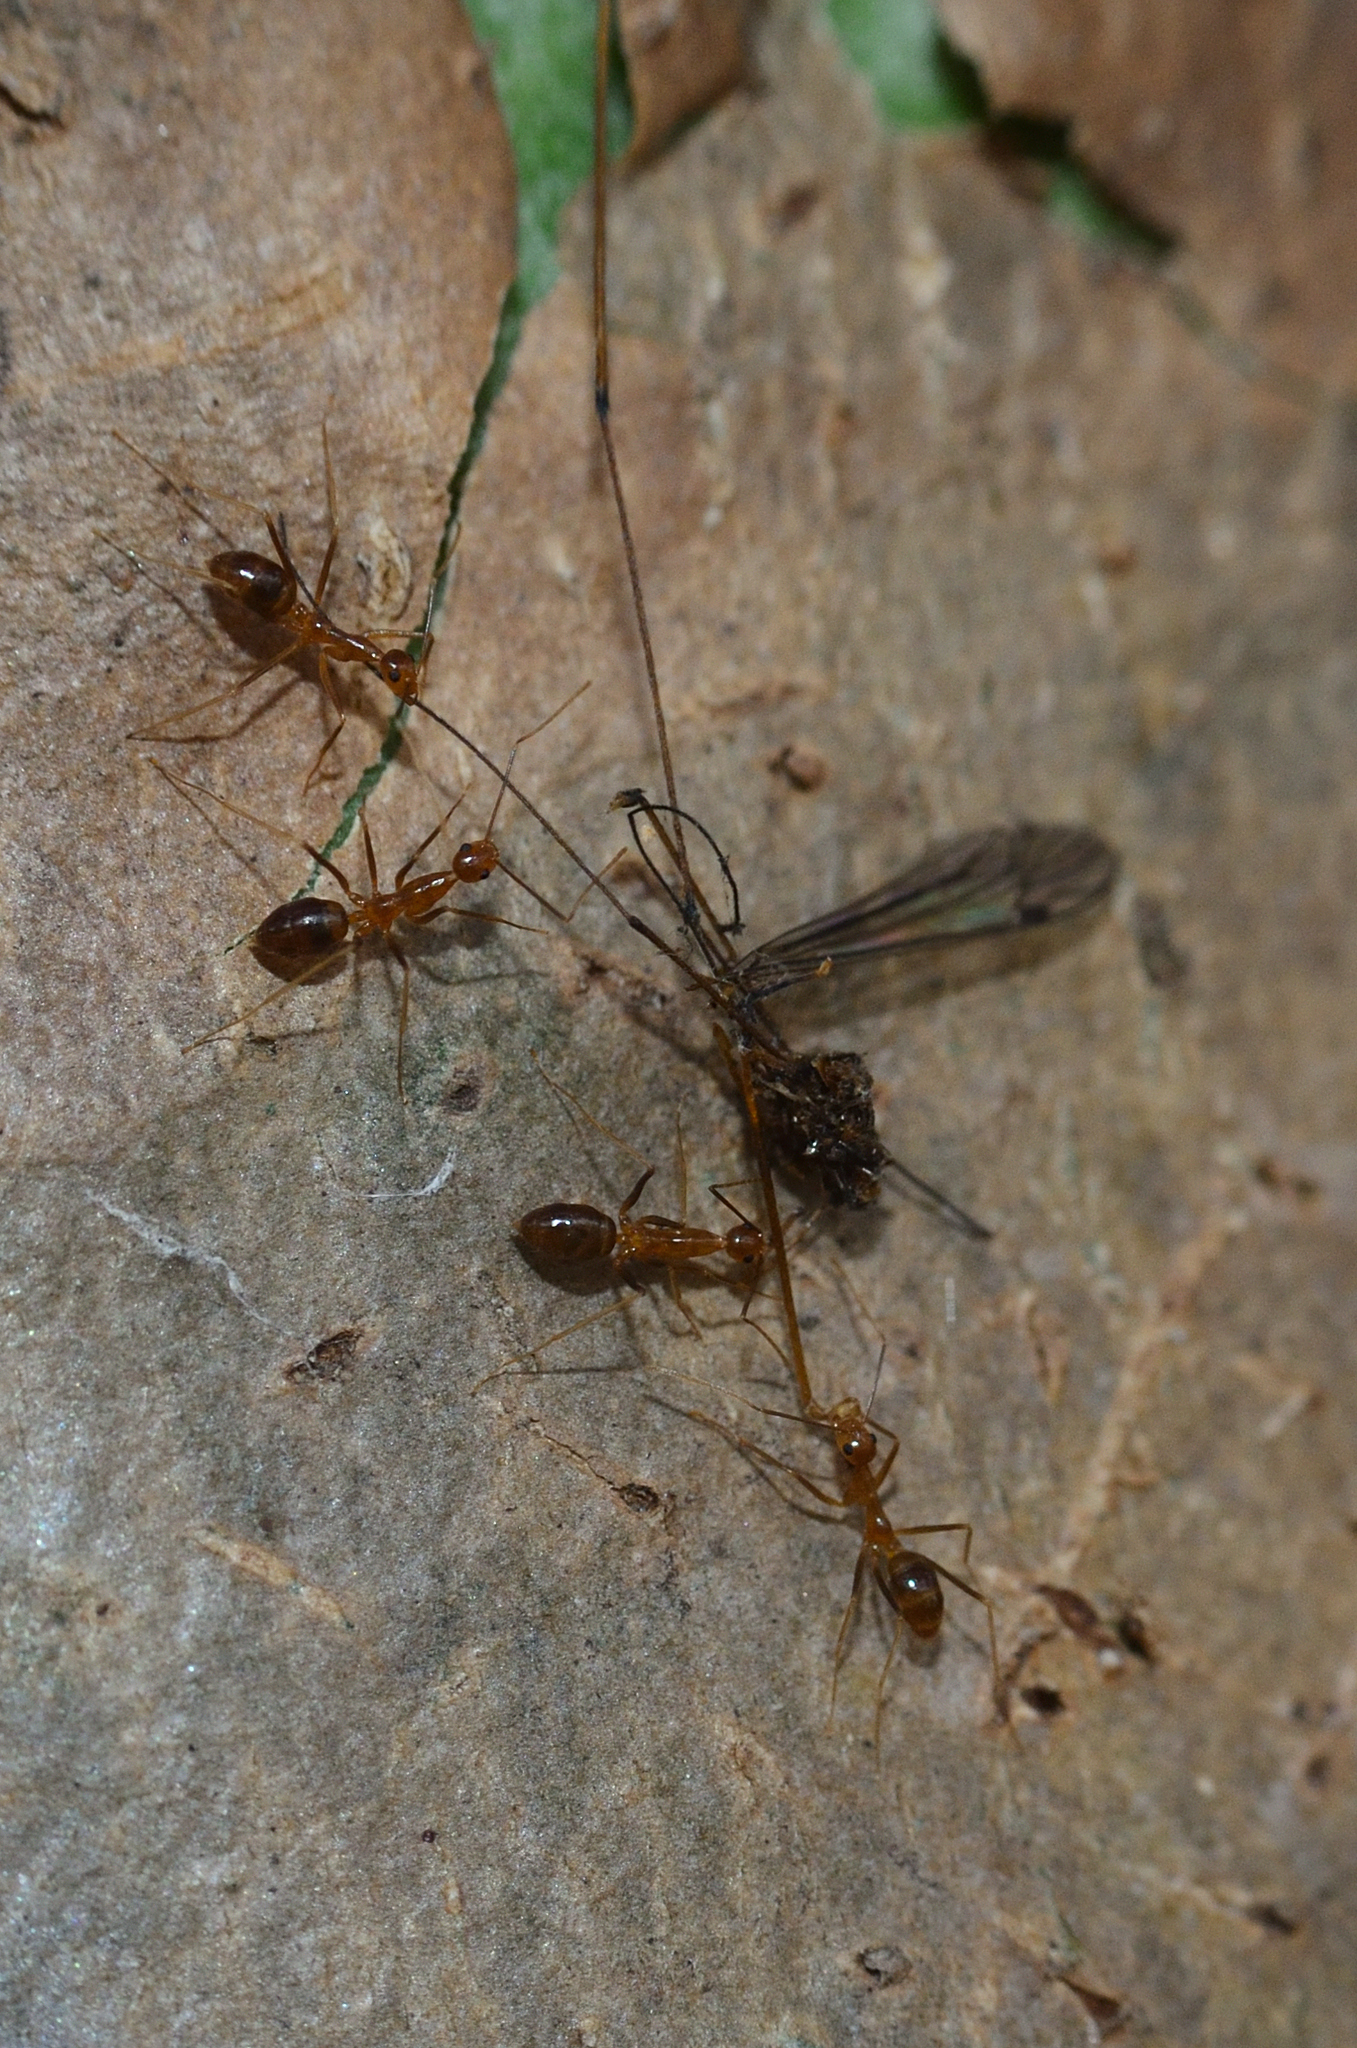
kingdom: Animalia
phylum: Arthropoda
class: Insecta
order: Hymenoptera
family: Formicidae
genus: Anoplolepis
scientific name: Anoplolepis gracilipes
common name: Ant
